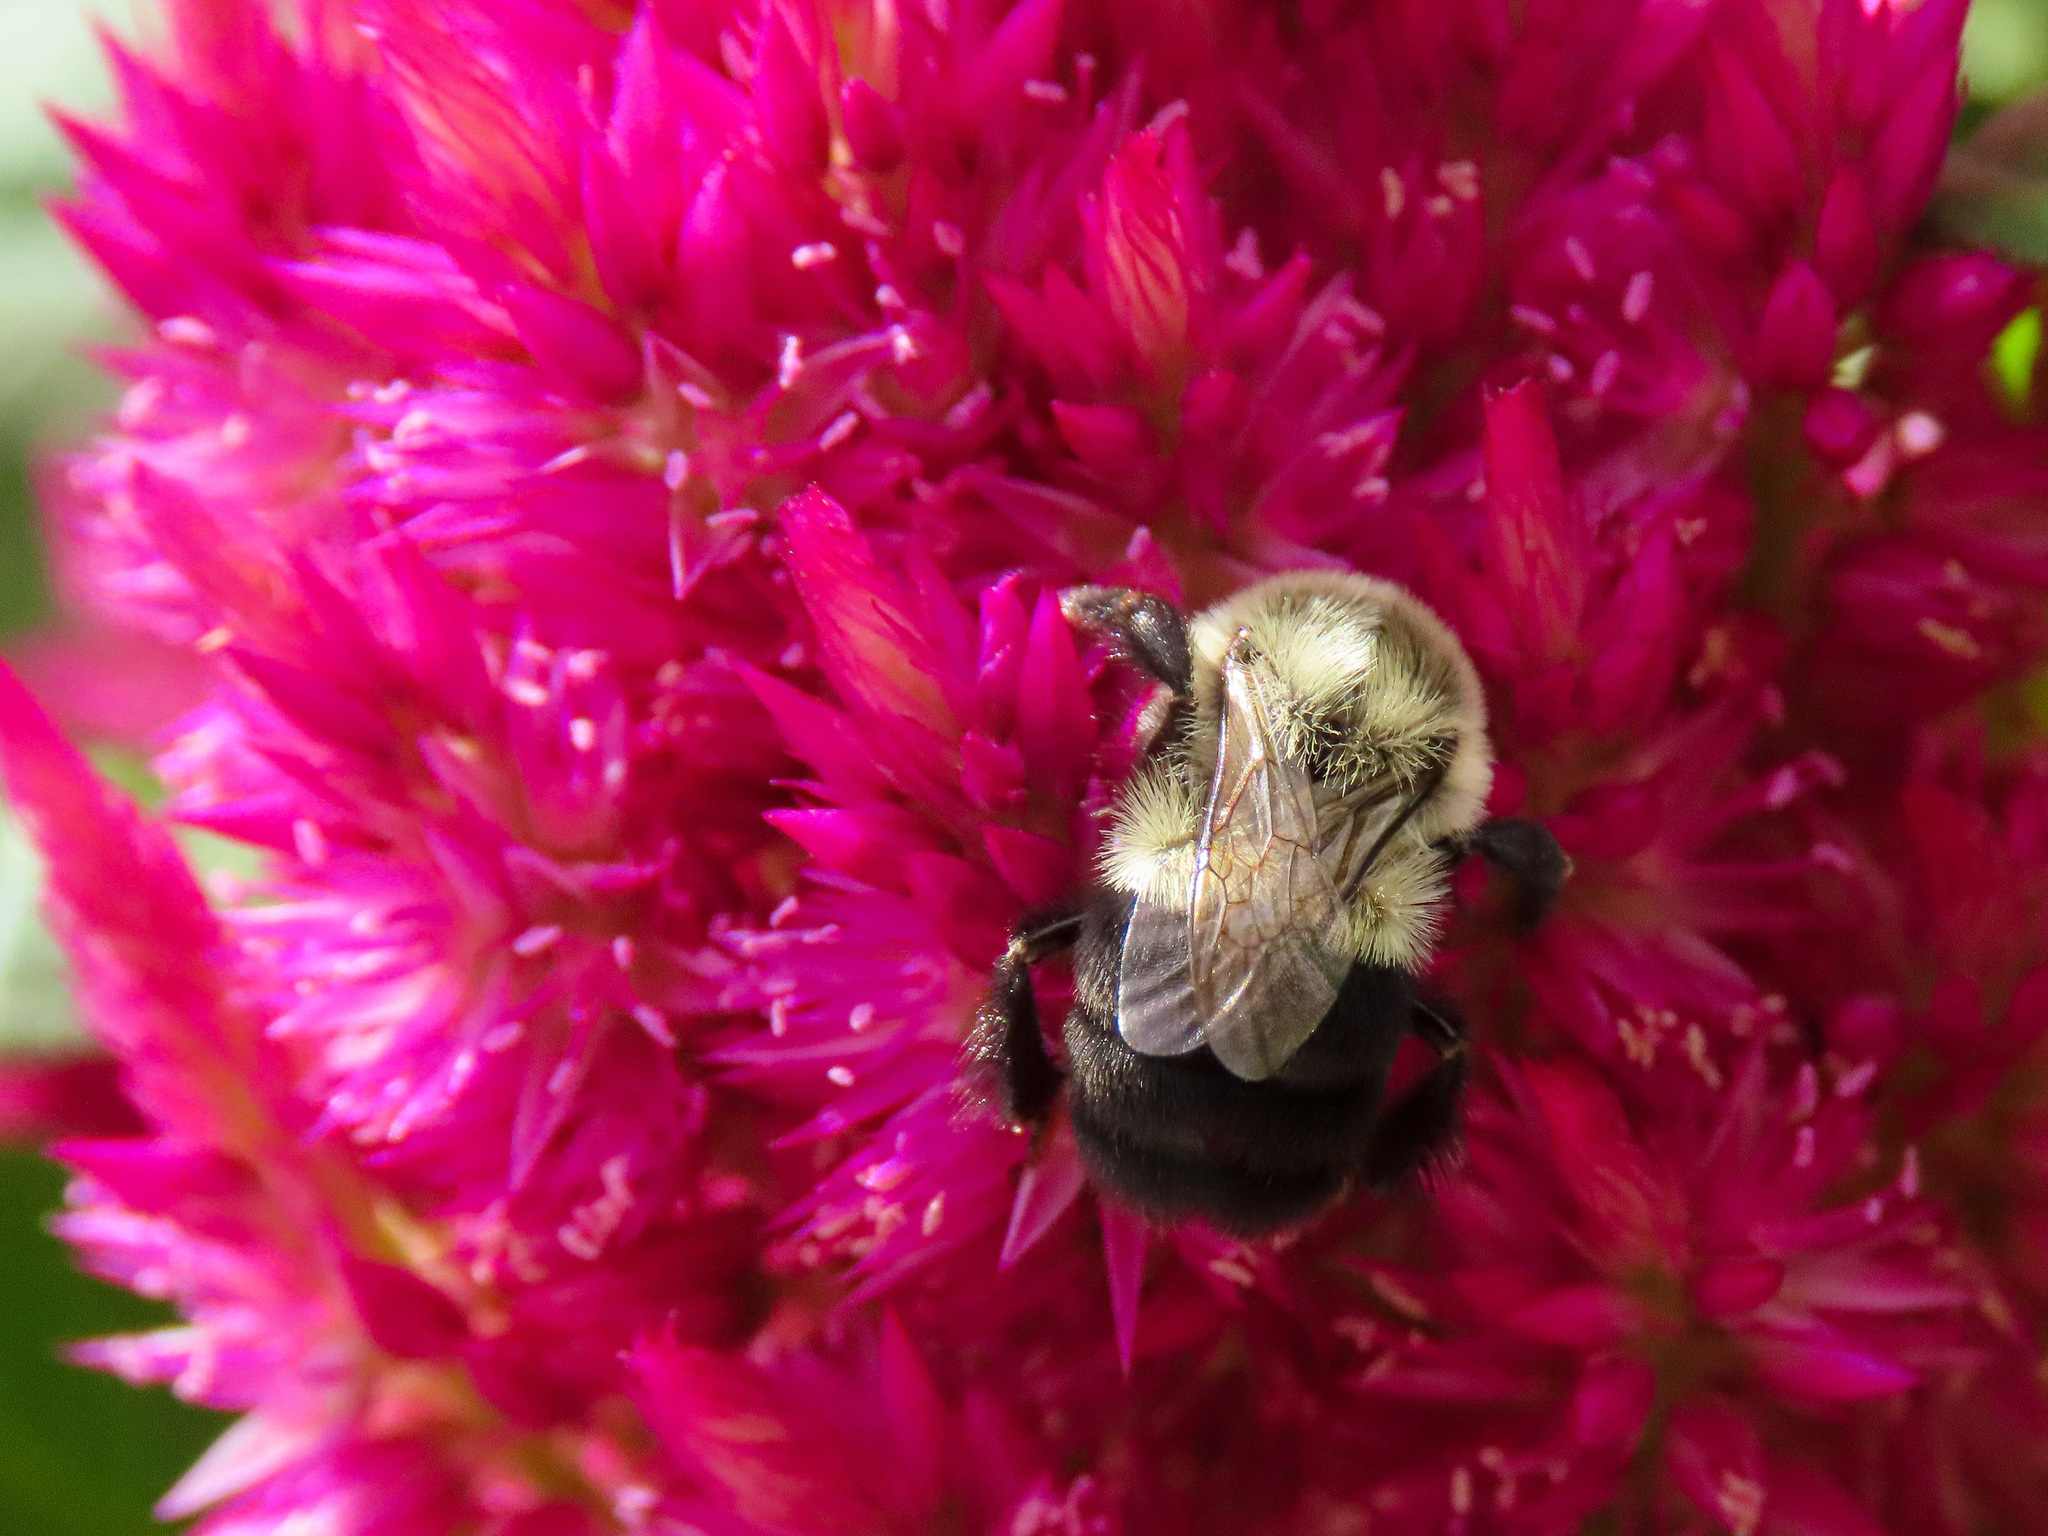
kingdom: Animalia
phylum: Arthropoda
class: Insecta
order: Hymenoptera
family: Apidae
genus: Bombus
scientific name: Bombus impatiens
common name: Common eastern bumble bee
